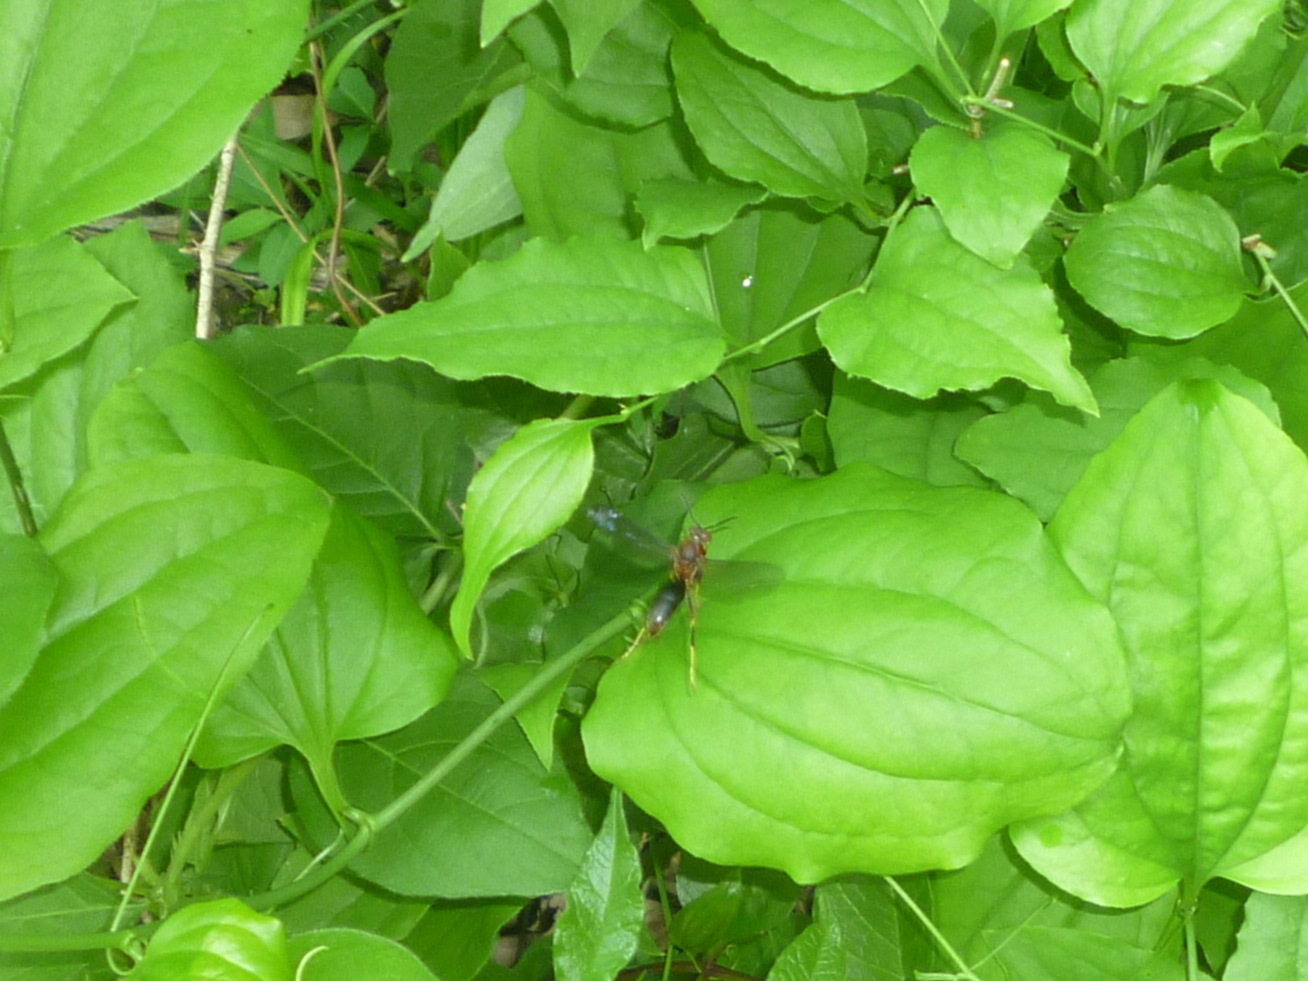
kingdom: Animalia
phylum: Arthropoda
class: Insecta
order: Hymenoptera
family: Eumenidae
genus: Polistes
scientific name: Polistes metricus
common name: Metric paper wasp
